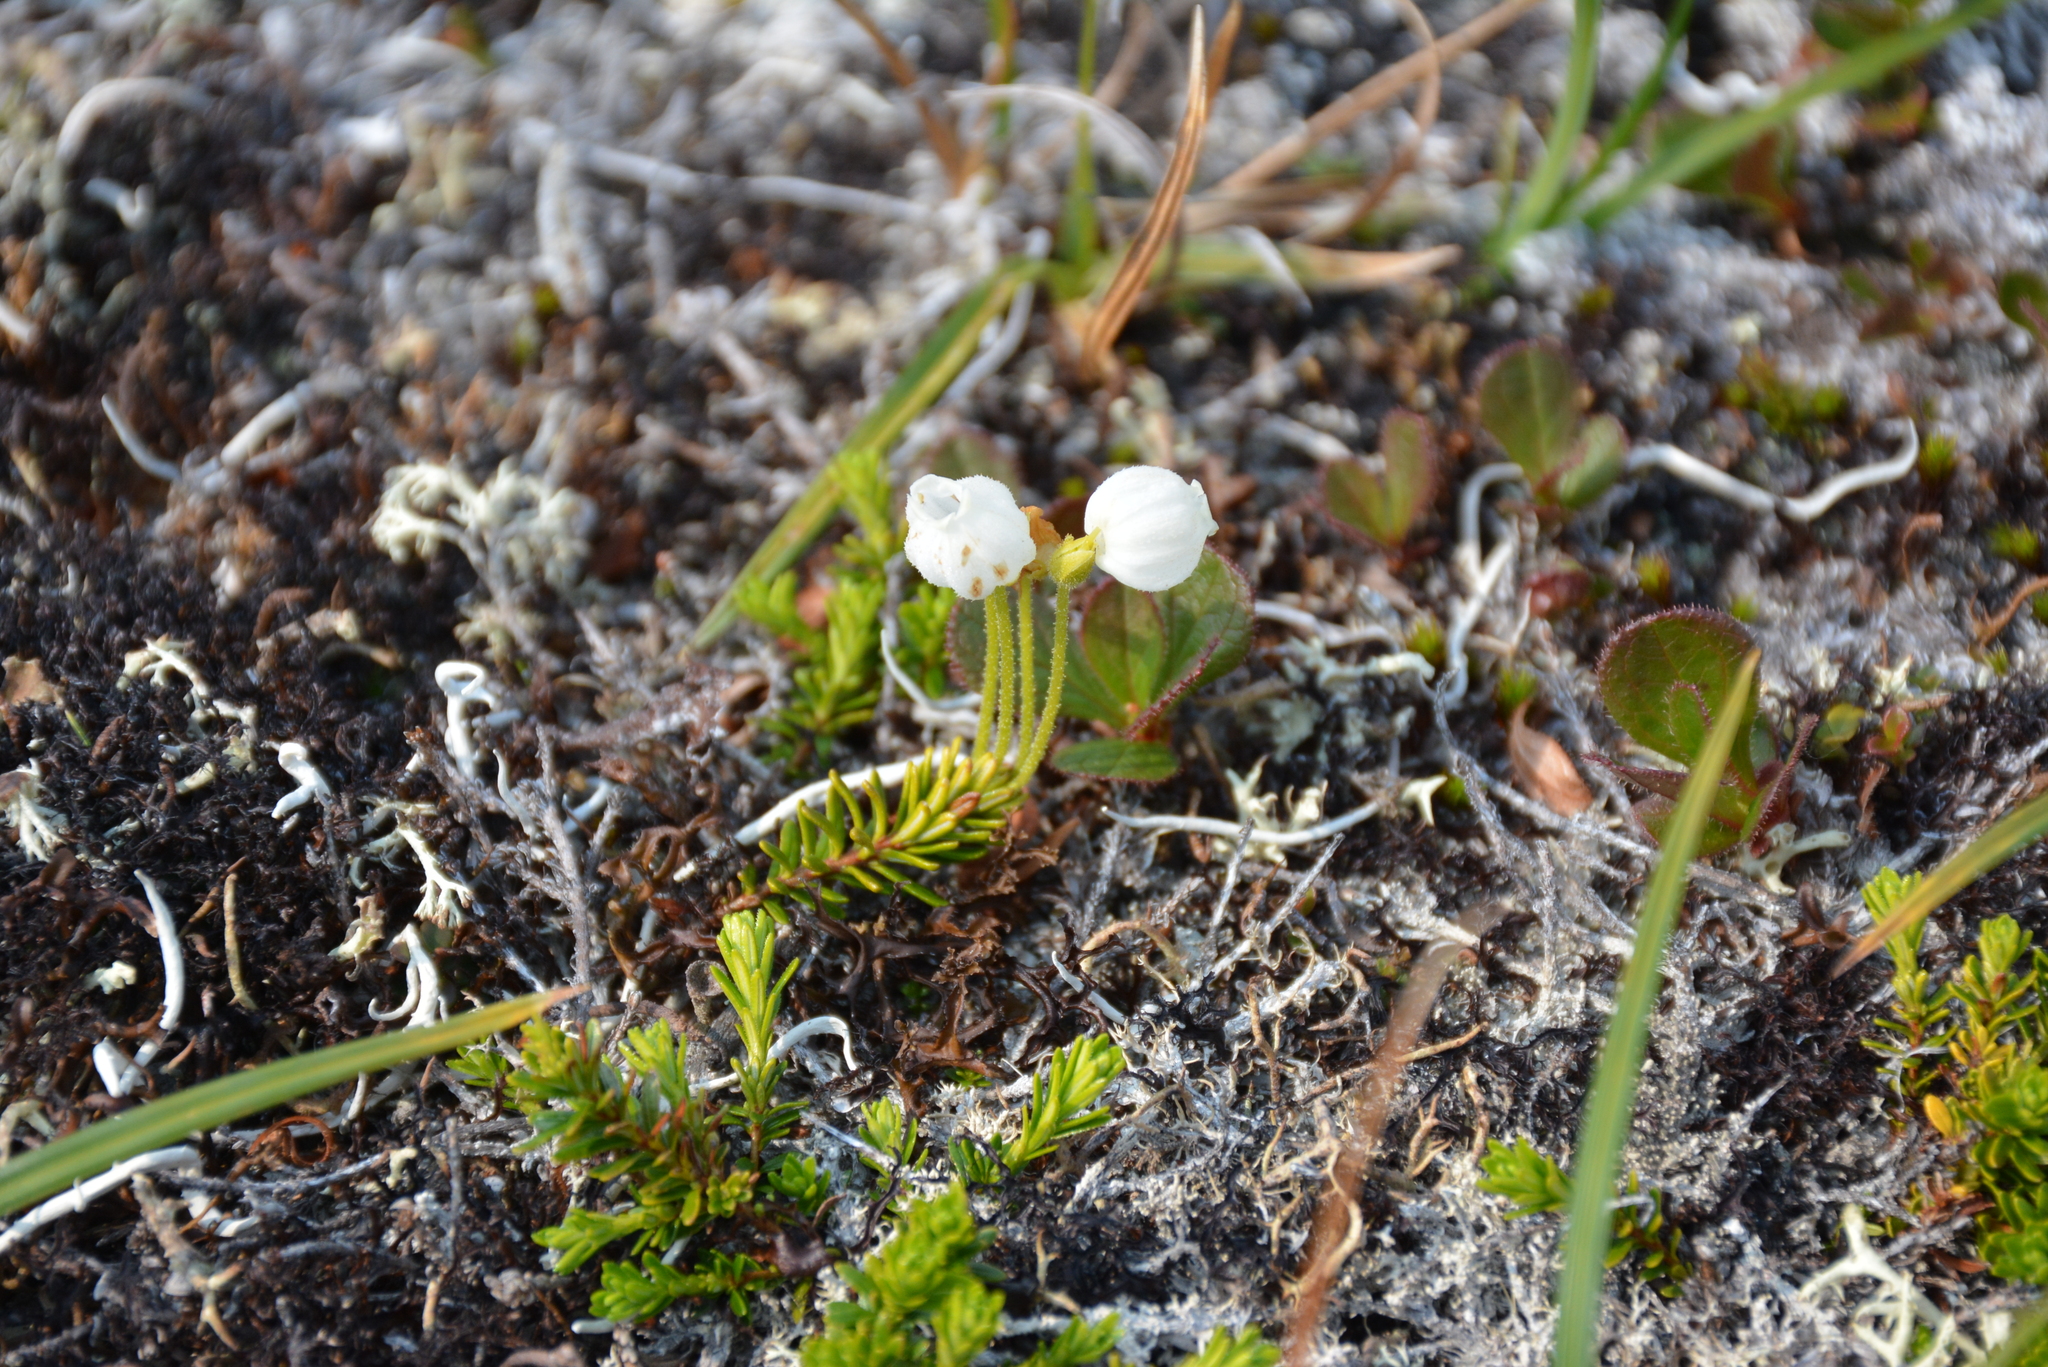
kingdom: Plantae
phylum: Tracheophyta
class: Magnoliopsida
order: Ericales
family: Ericaceae
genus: Phyllodoce
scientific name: Phyllodoce caerulea
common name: Blue heath
